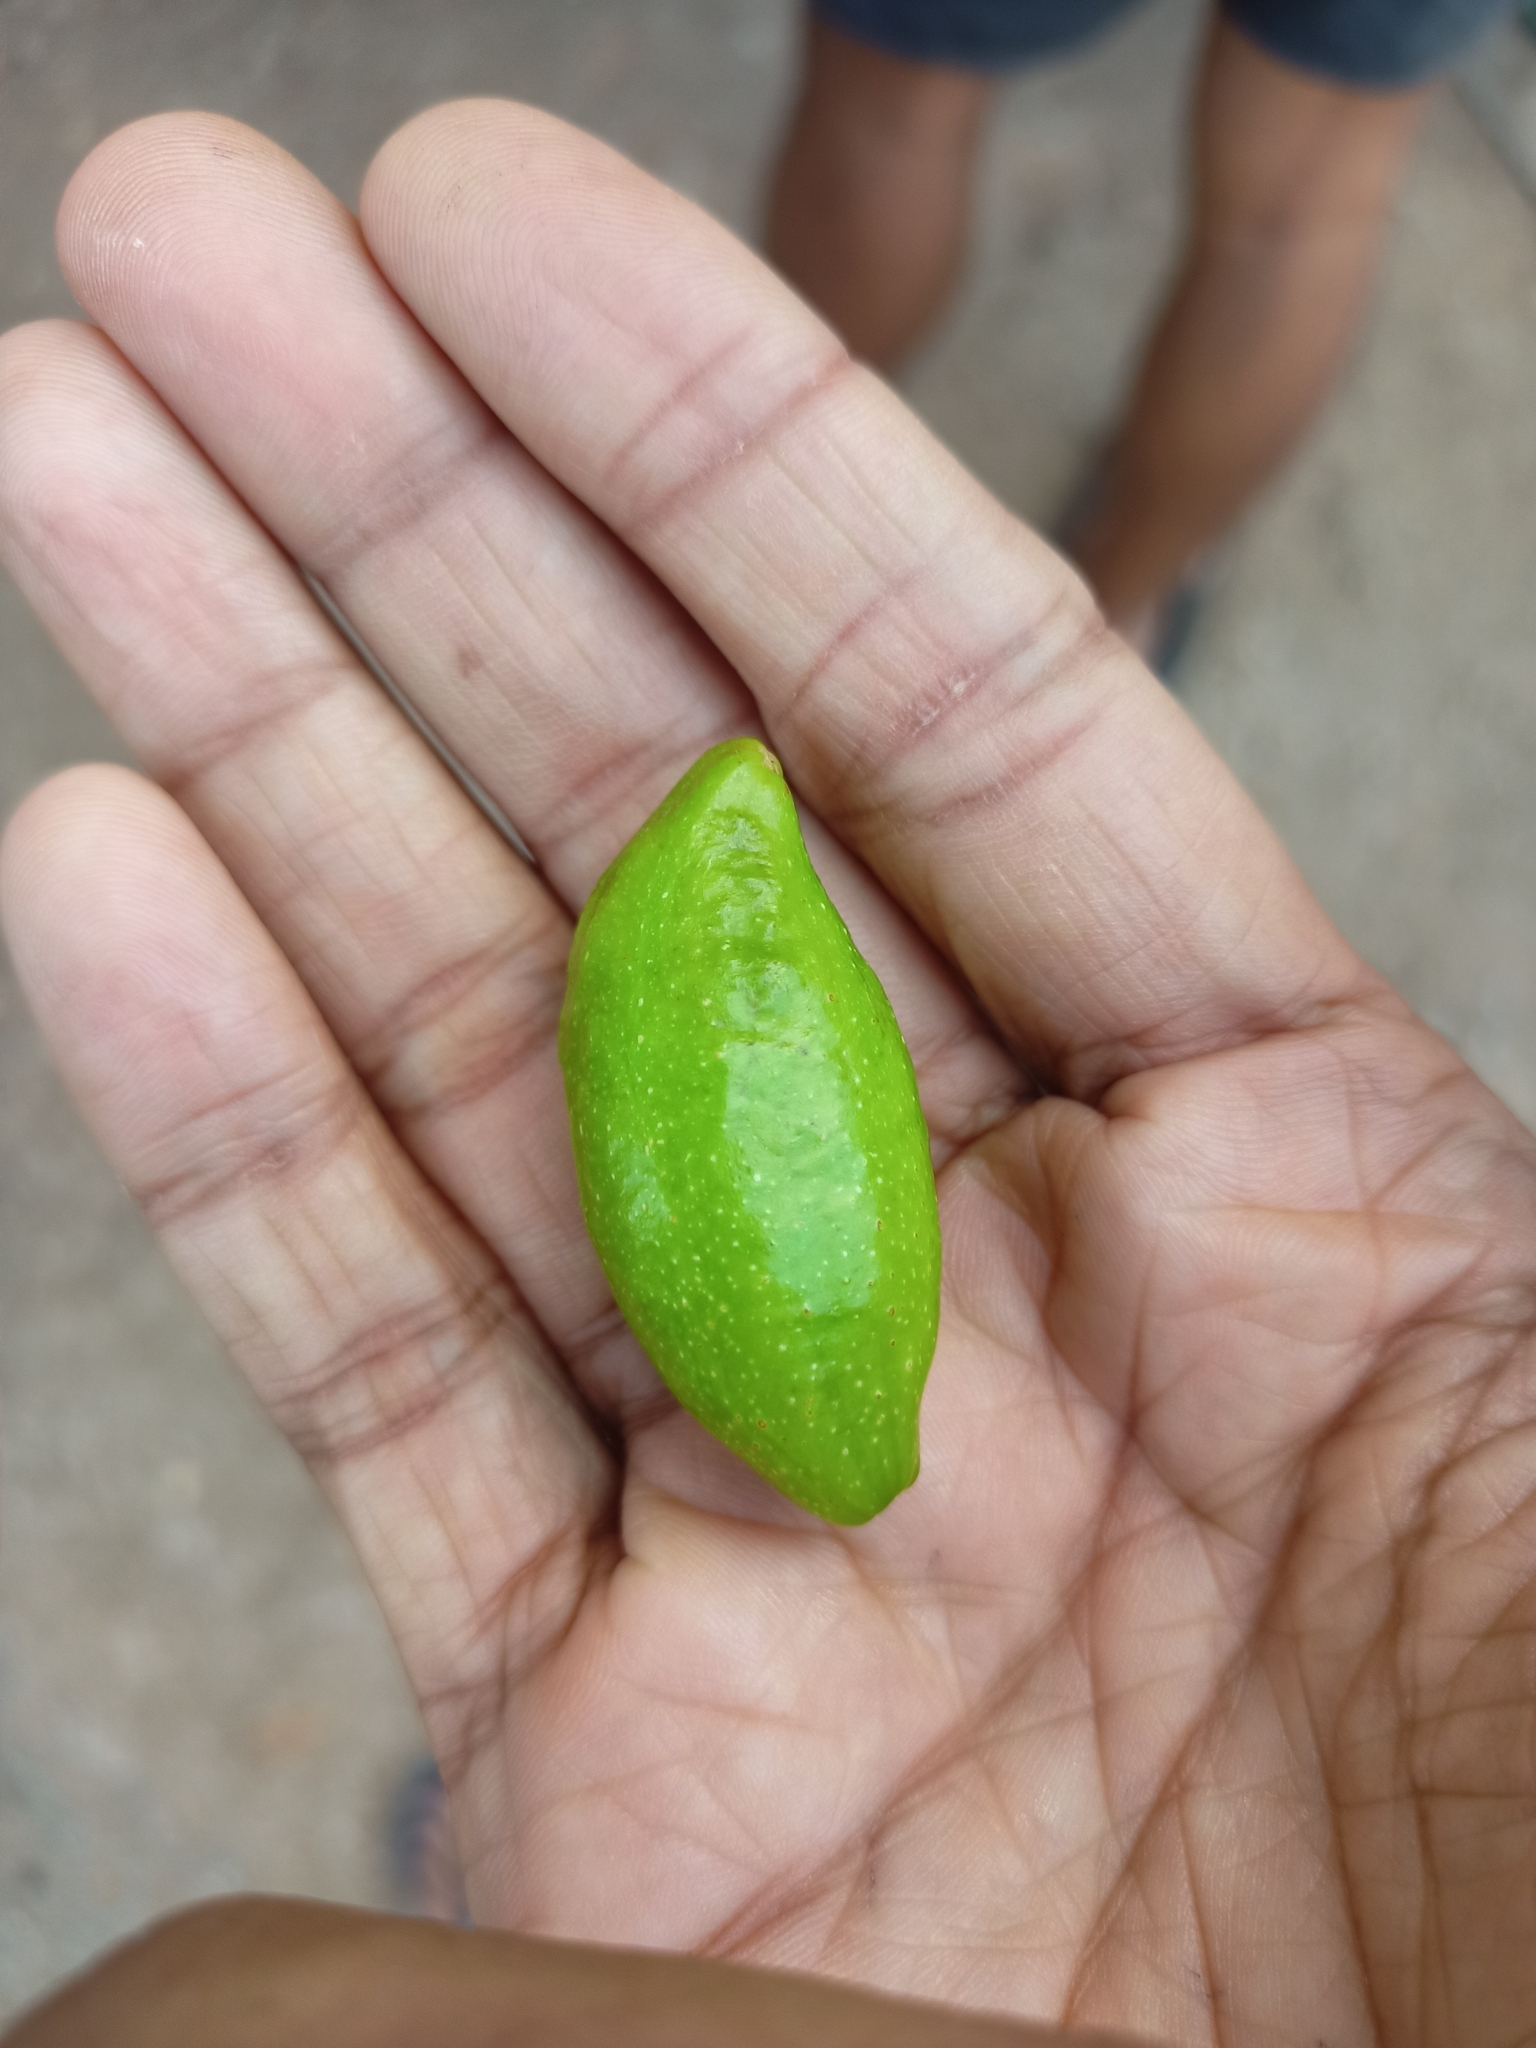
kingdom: Plantae
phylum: Tracheophyta
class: Magnoliopsida
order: Myrtales
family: Combretaceae
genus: Terminalia
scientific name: Terminalia chebula
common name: Myrobalan
